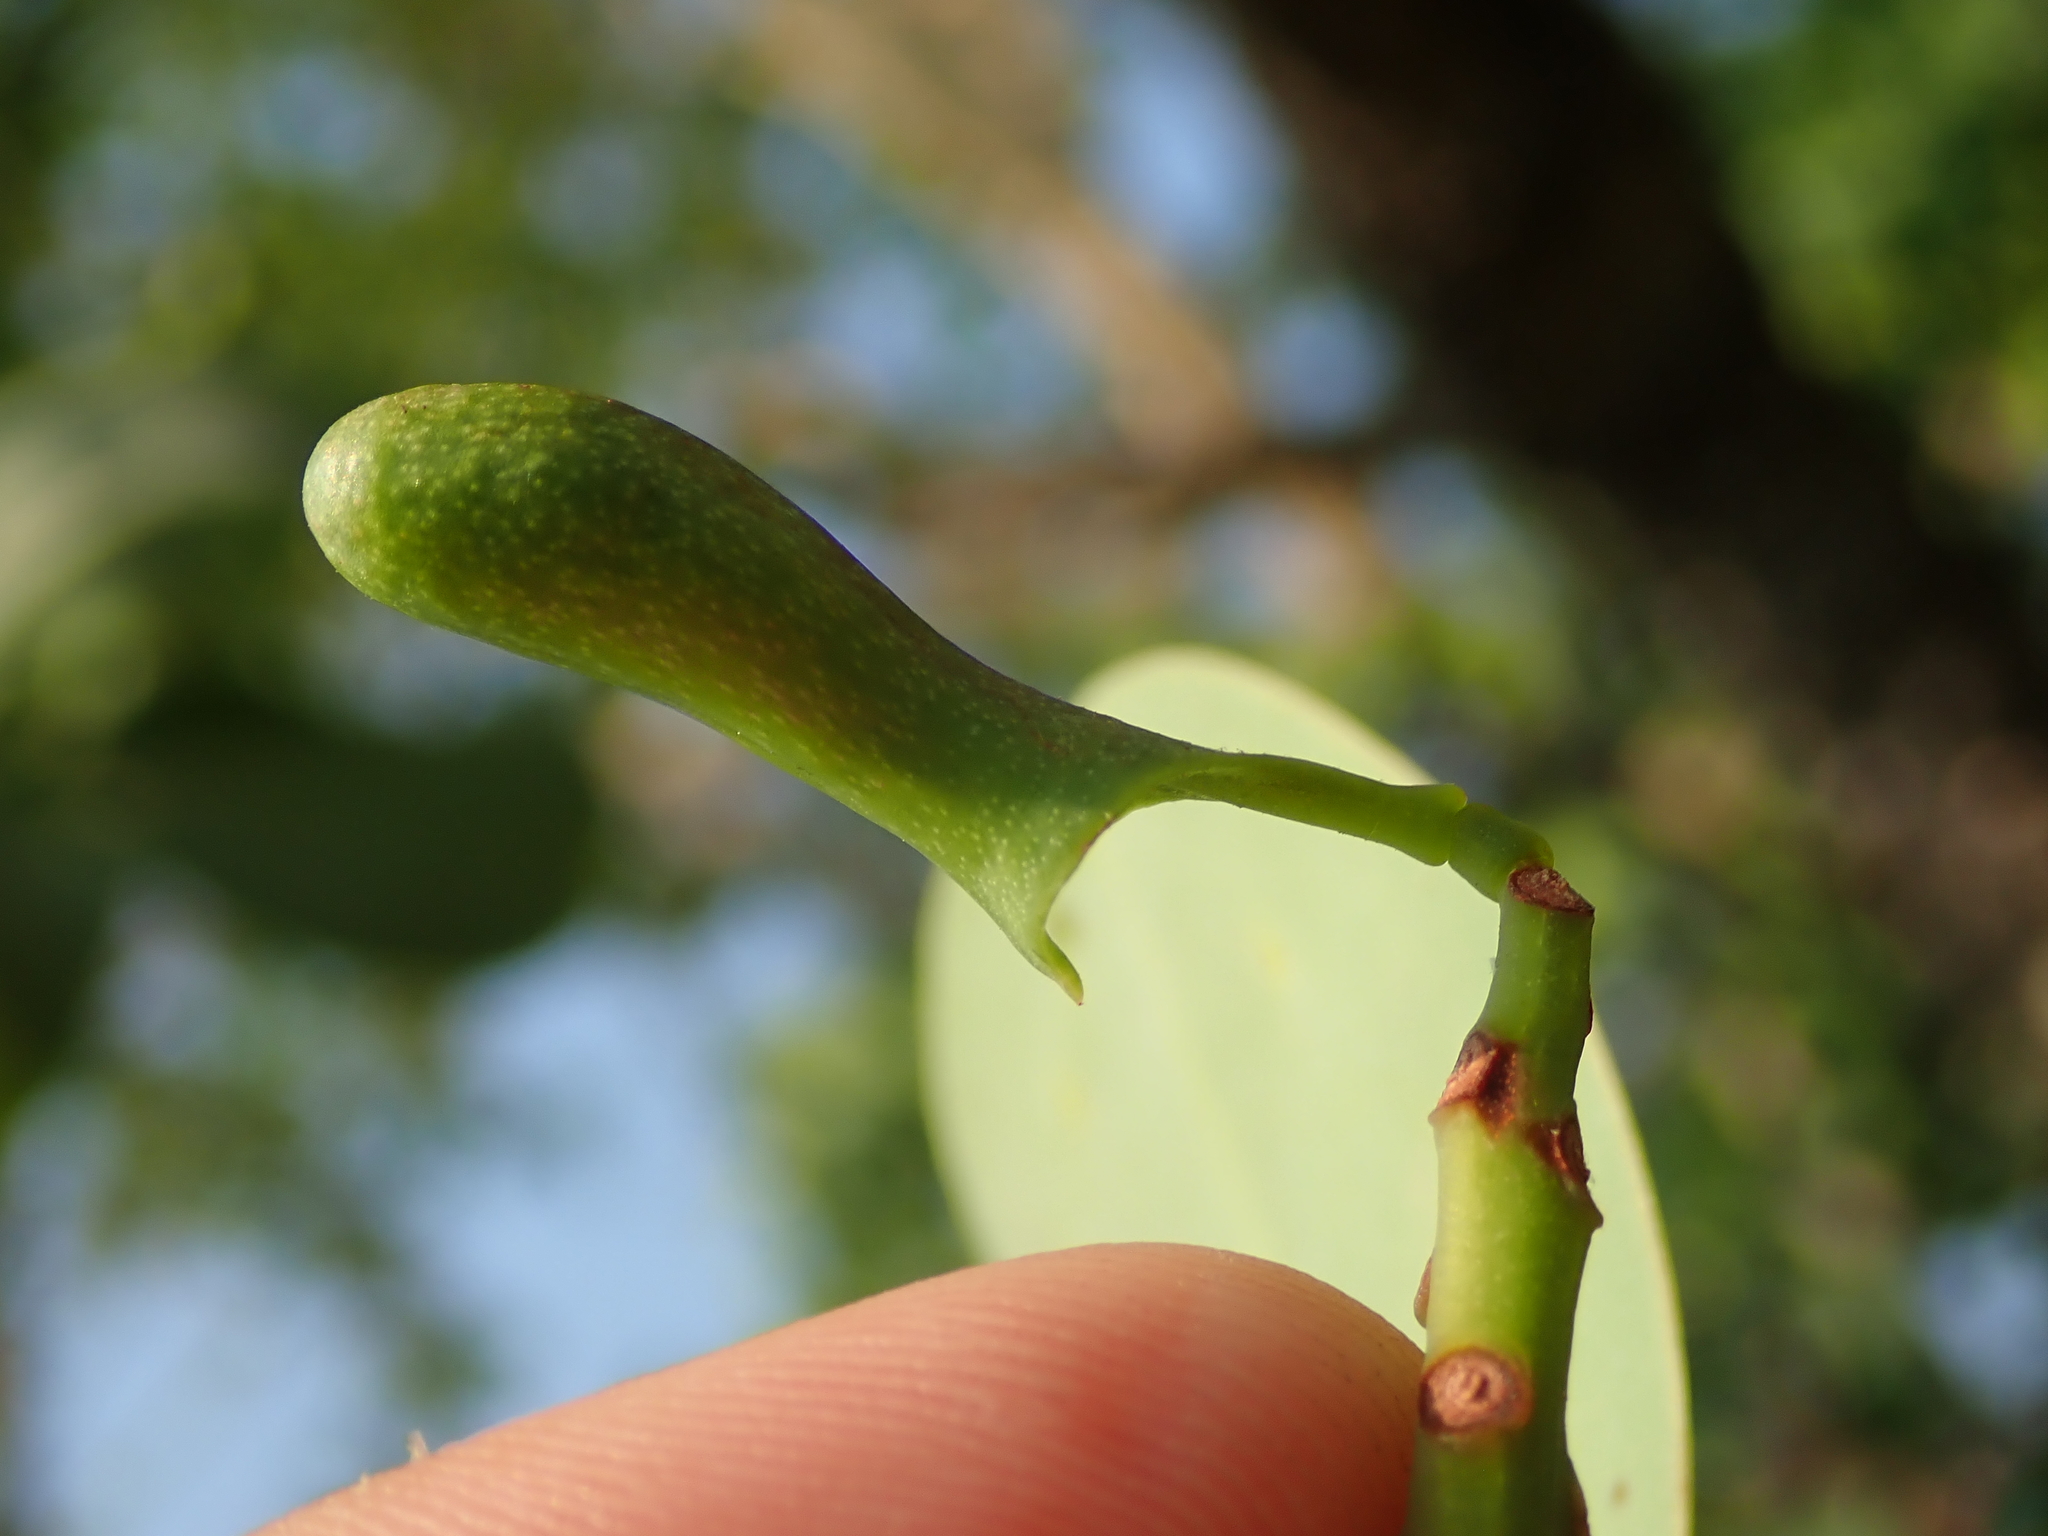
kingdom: Plantae
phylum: Tracheophyta
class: Magnoliopsida
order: Ericales
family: Marcgraviaceae
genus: Schwartzia
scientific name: Schwartzia adamantium
